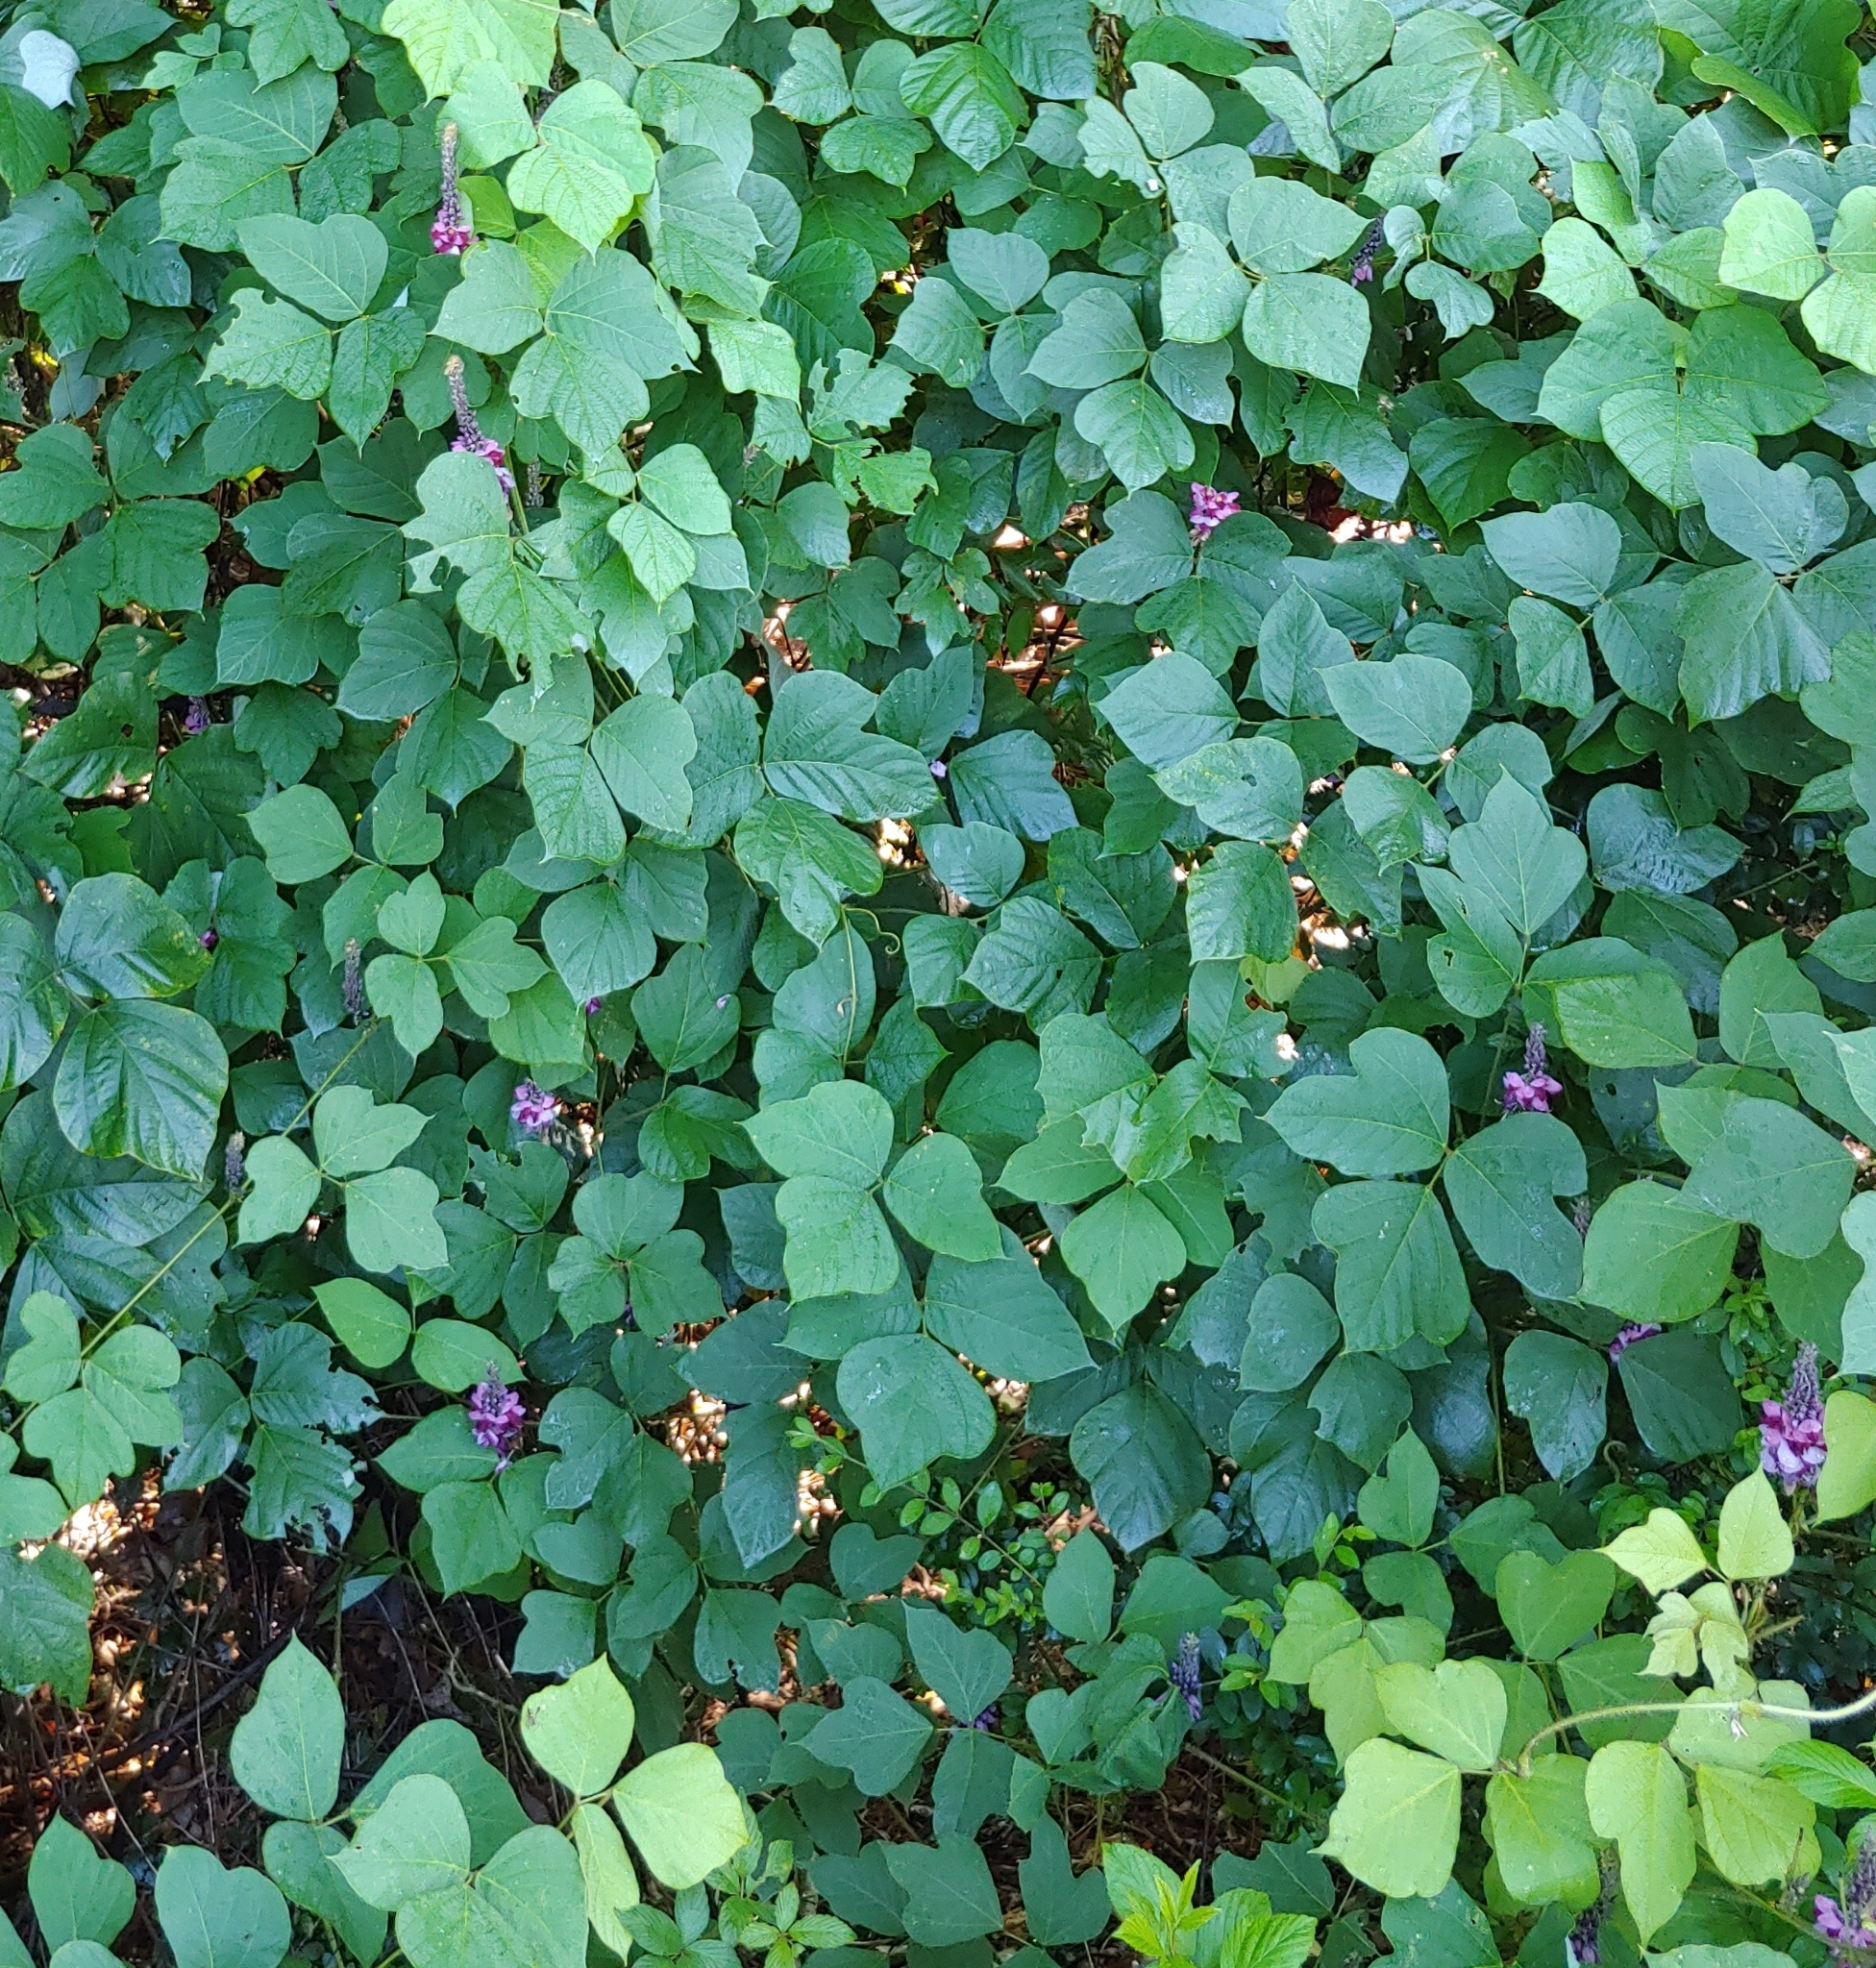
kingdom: Plantae
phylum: Tracheophyta
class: Magnoliopsida
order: Fabales
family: Fabaceae
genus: Pueraria
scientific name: Pueraria montana
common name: Kudzu
